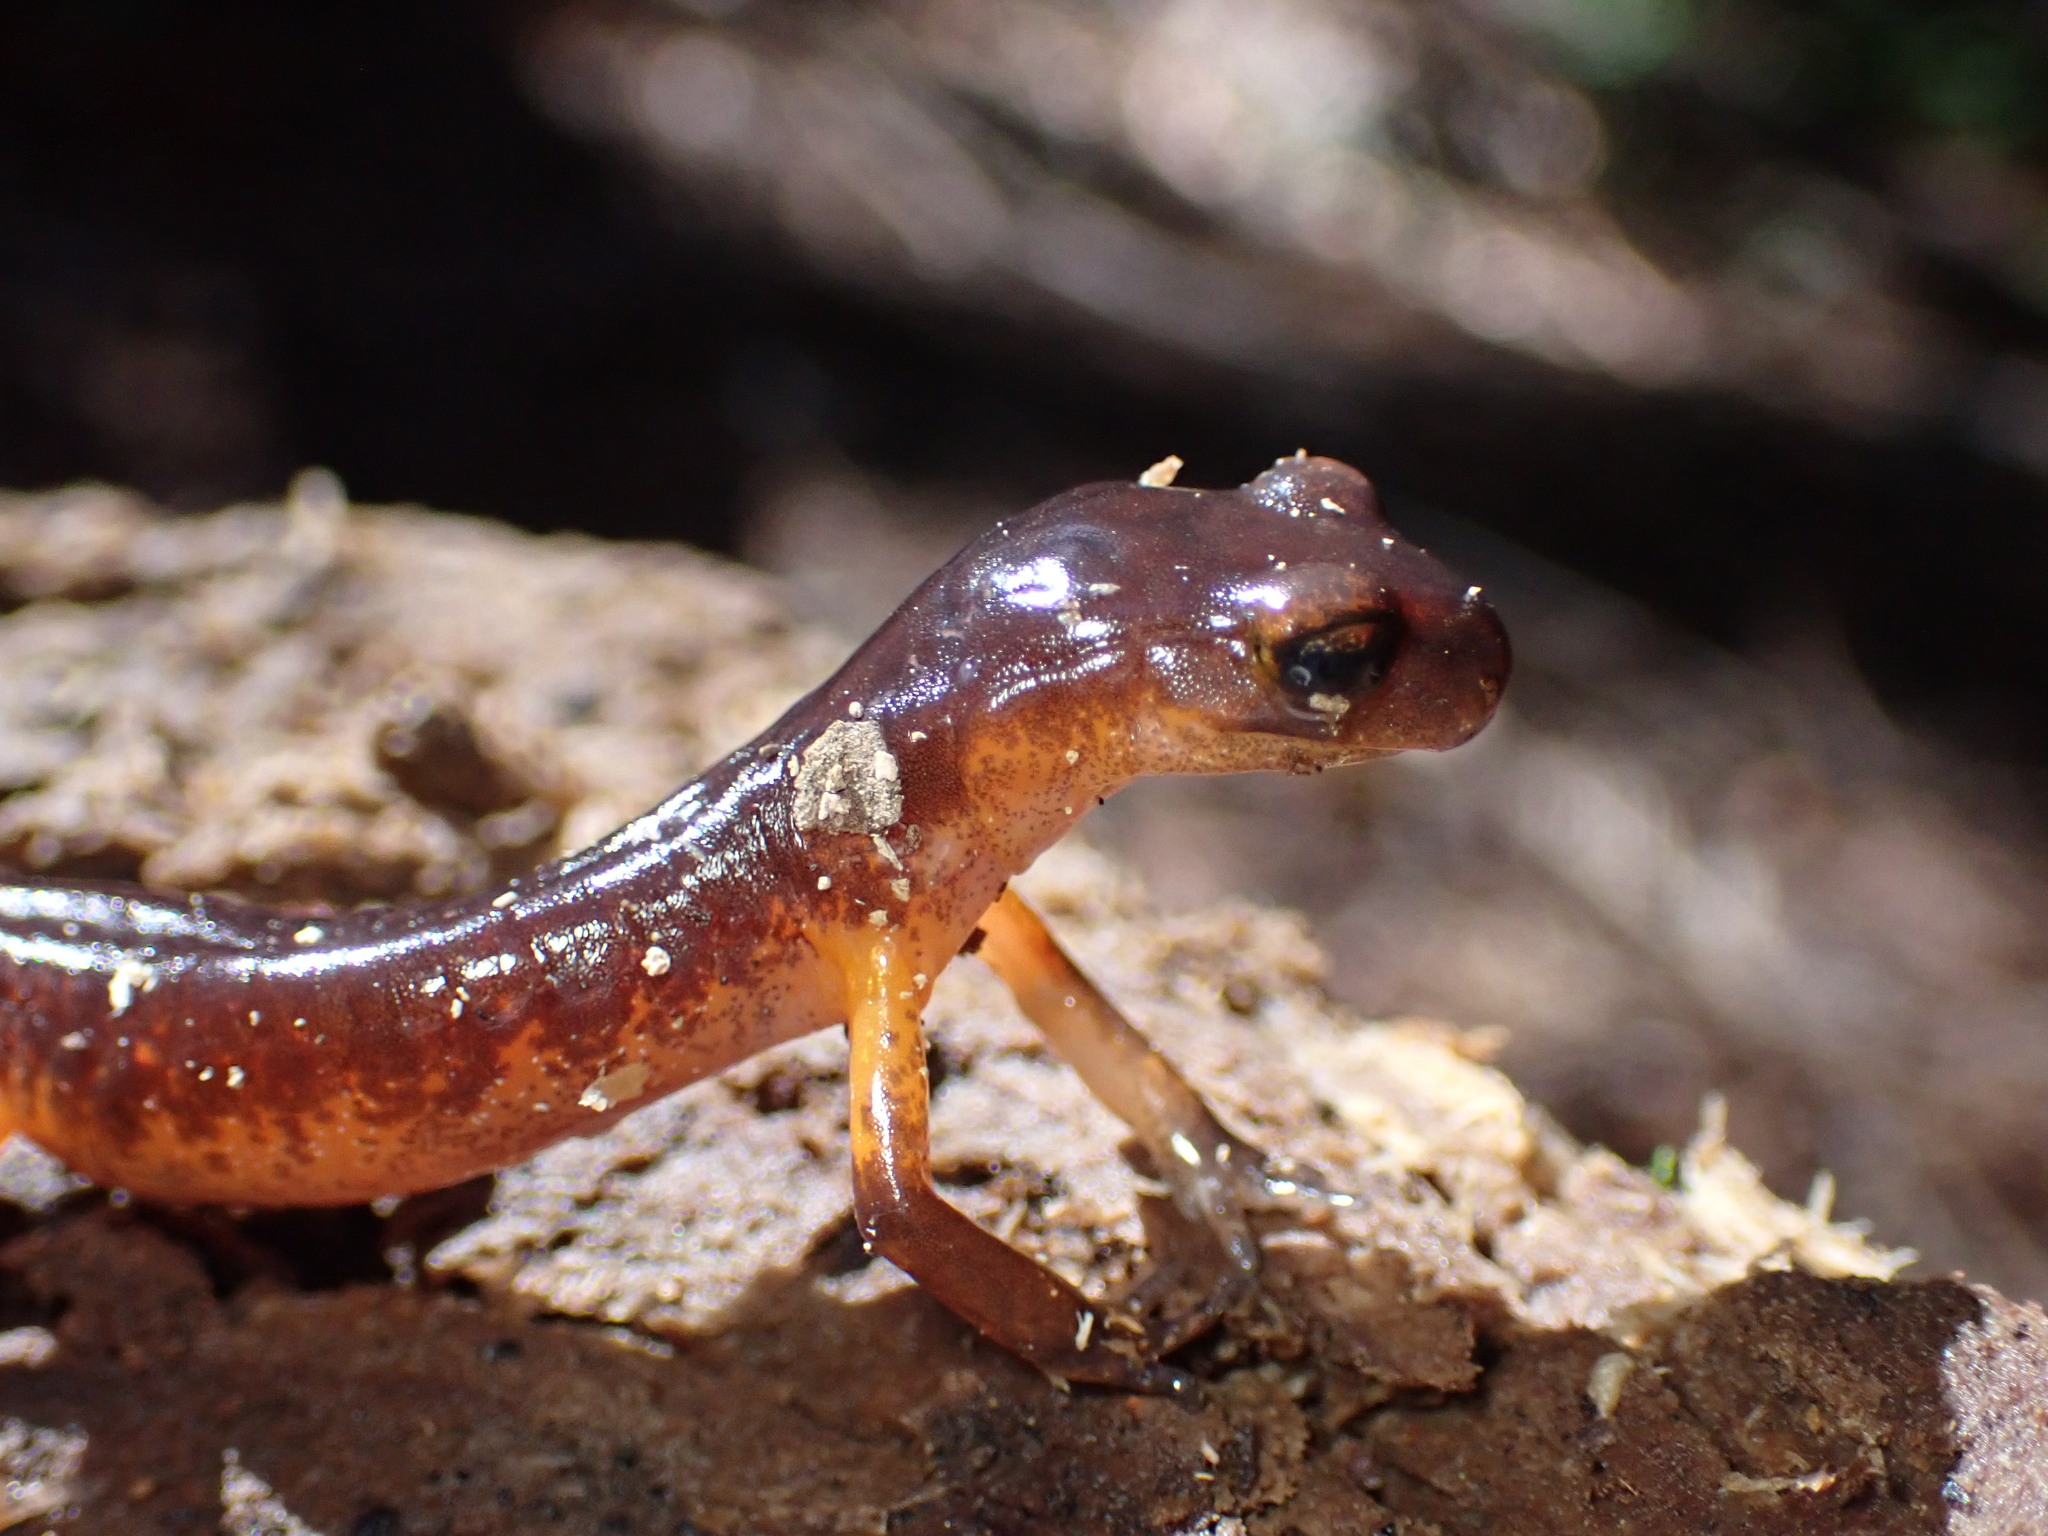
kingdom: Animalia
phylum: Chordata
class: Amphibia
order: Caudata
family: Plethodontidae
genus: Ensatina
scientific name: Ensatina eschscholtzii
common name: Ensatina
